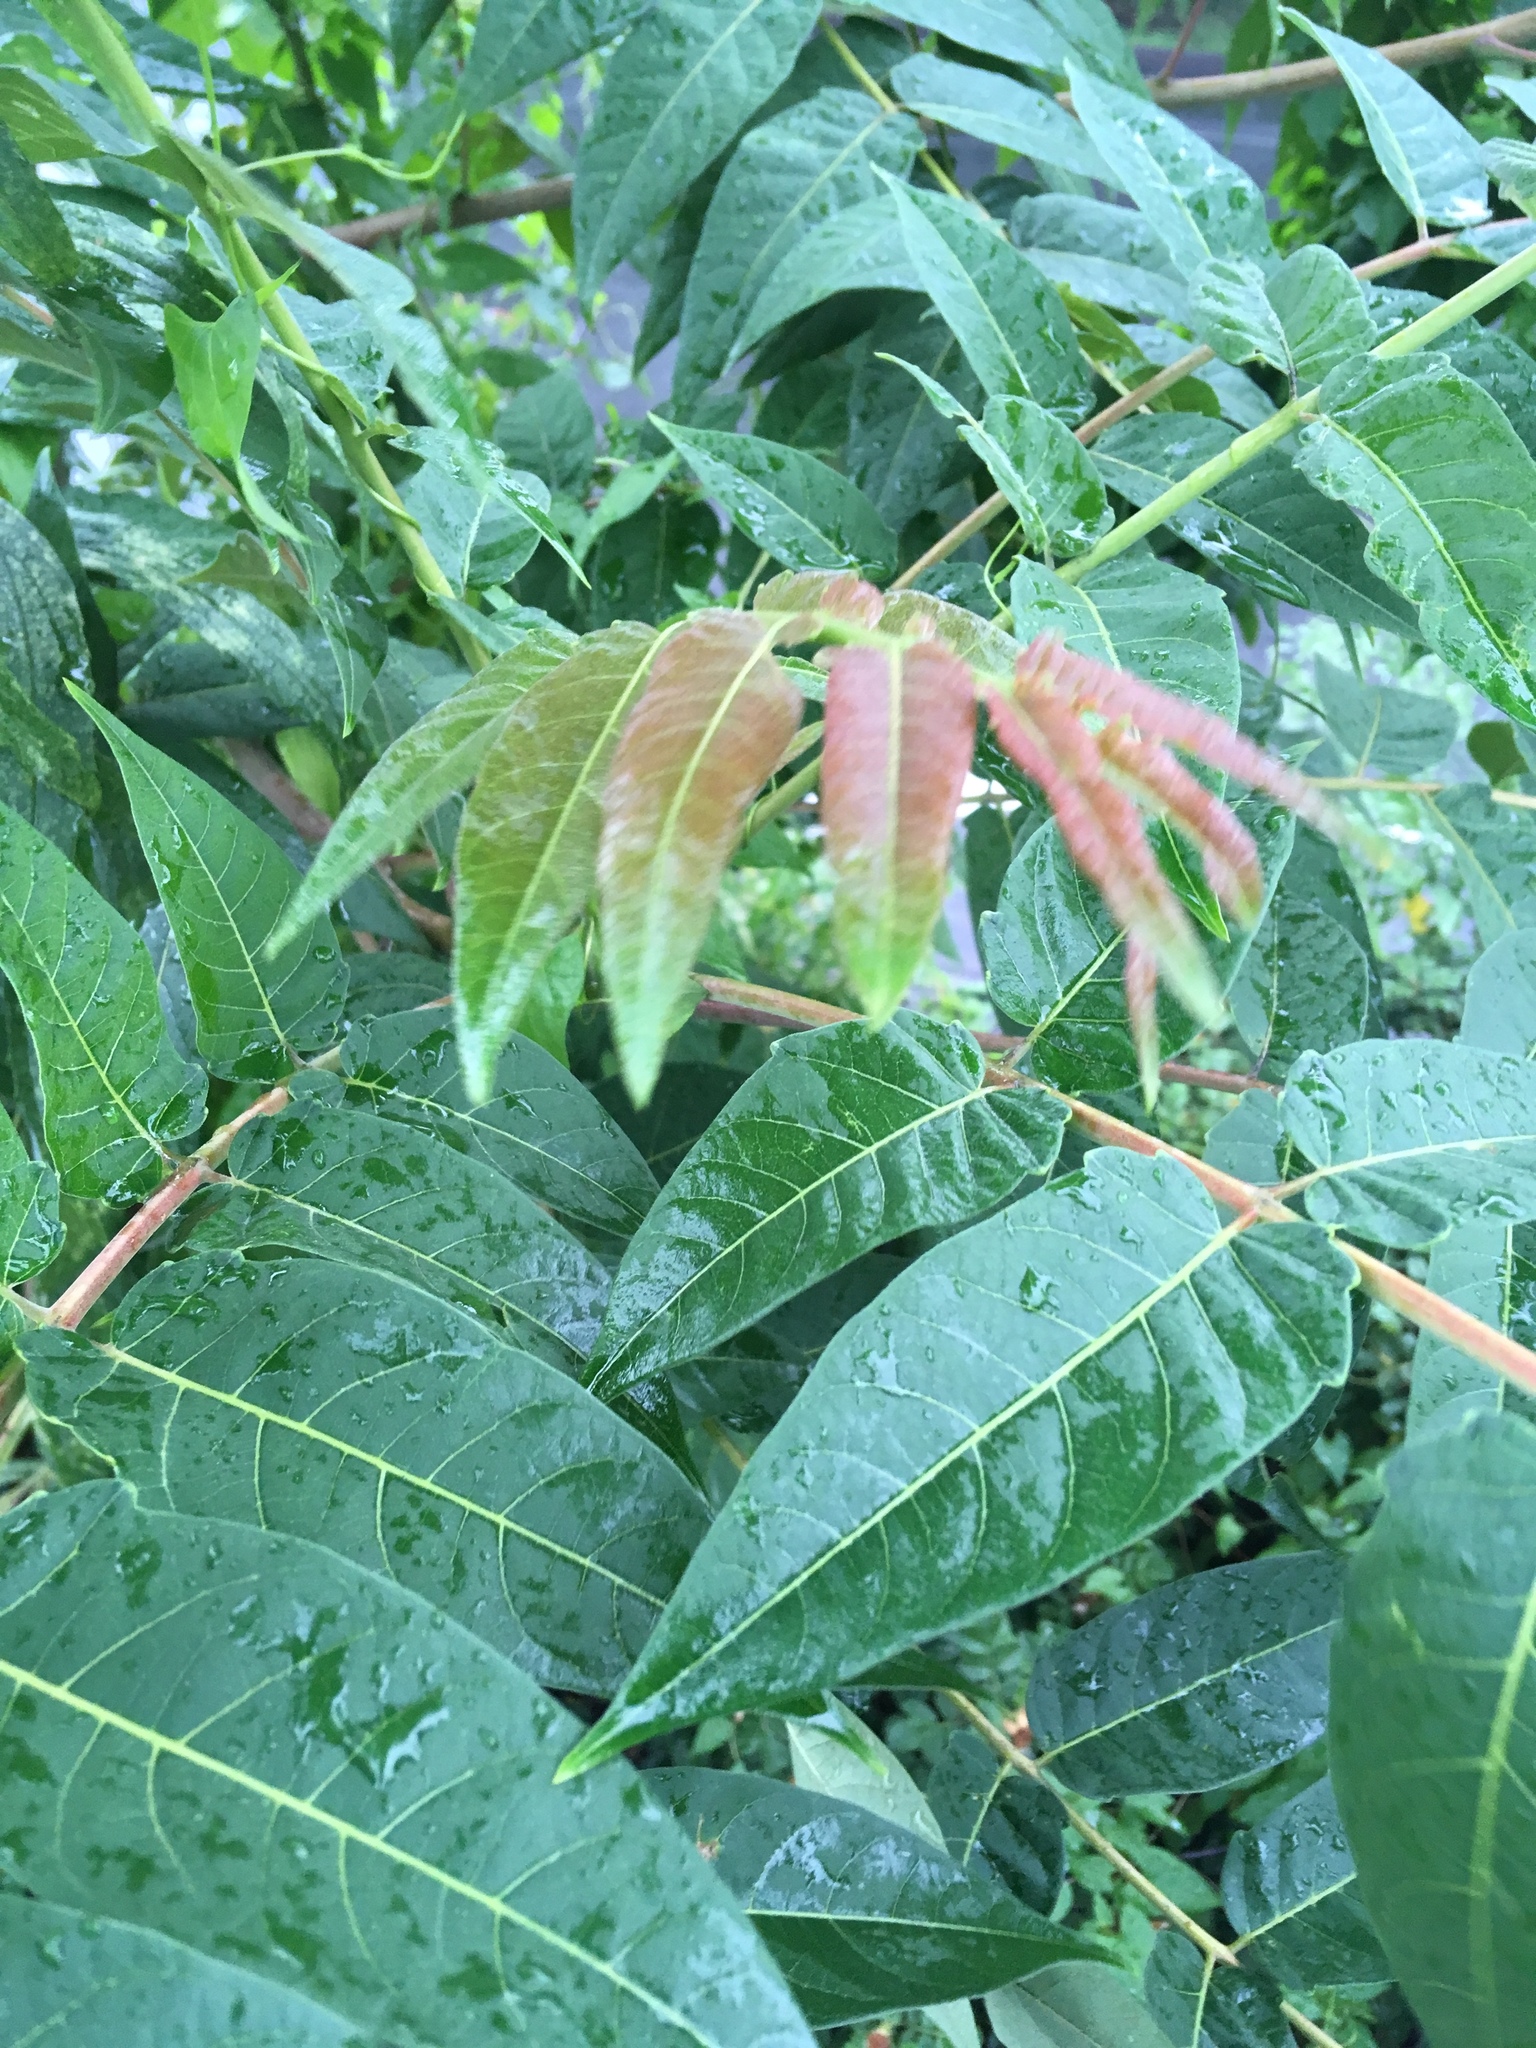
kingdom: Plantae
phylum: Tracheophyta
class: Magnoliopsida
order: Sapindales
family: Simaroubaceae
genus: Ailanthus
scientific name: Ailanthus altissima
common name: Tree-of-heaven
